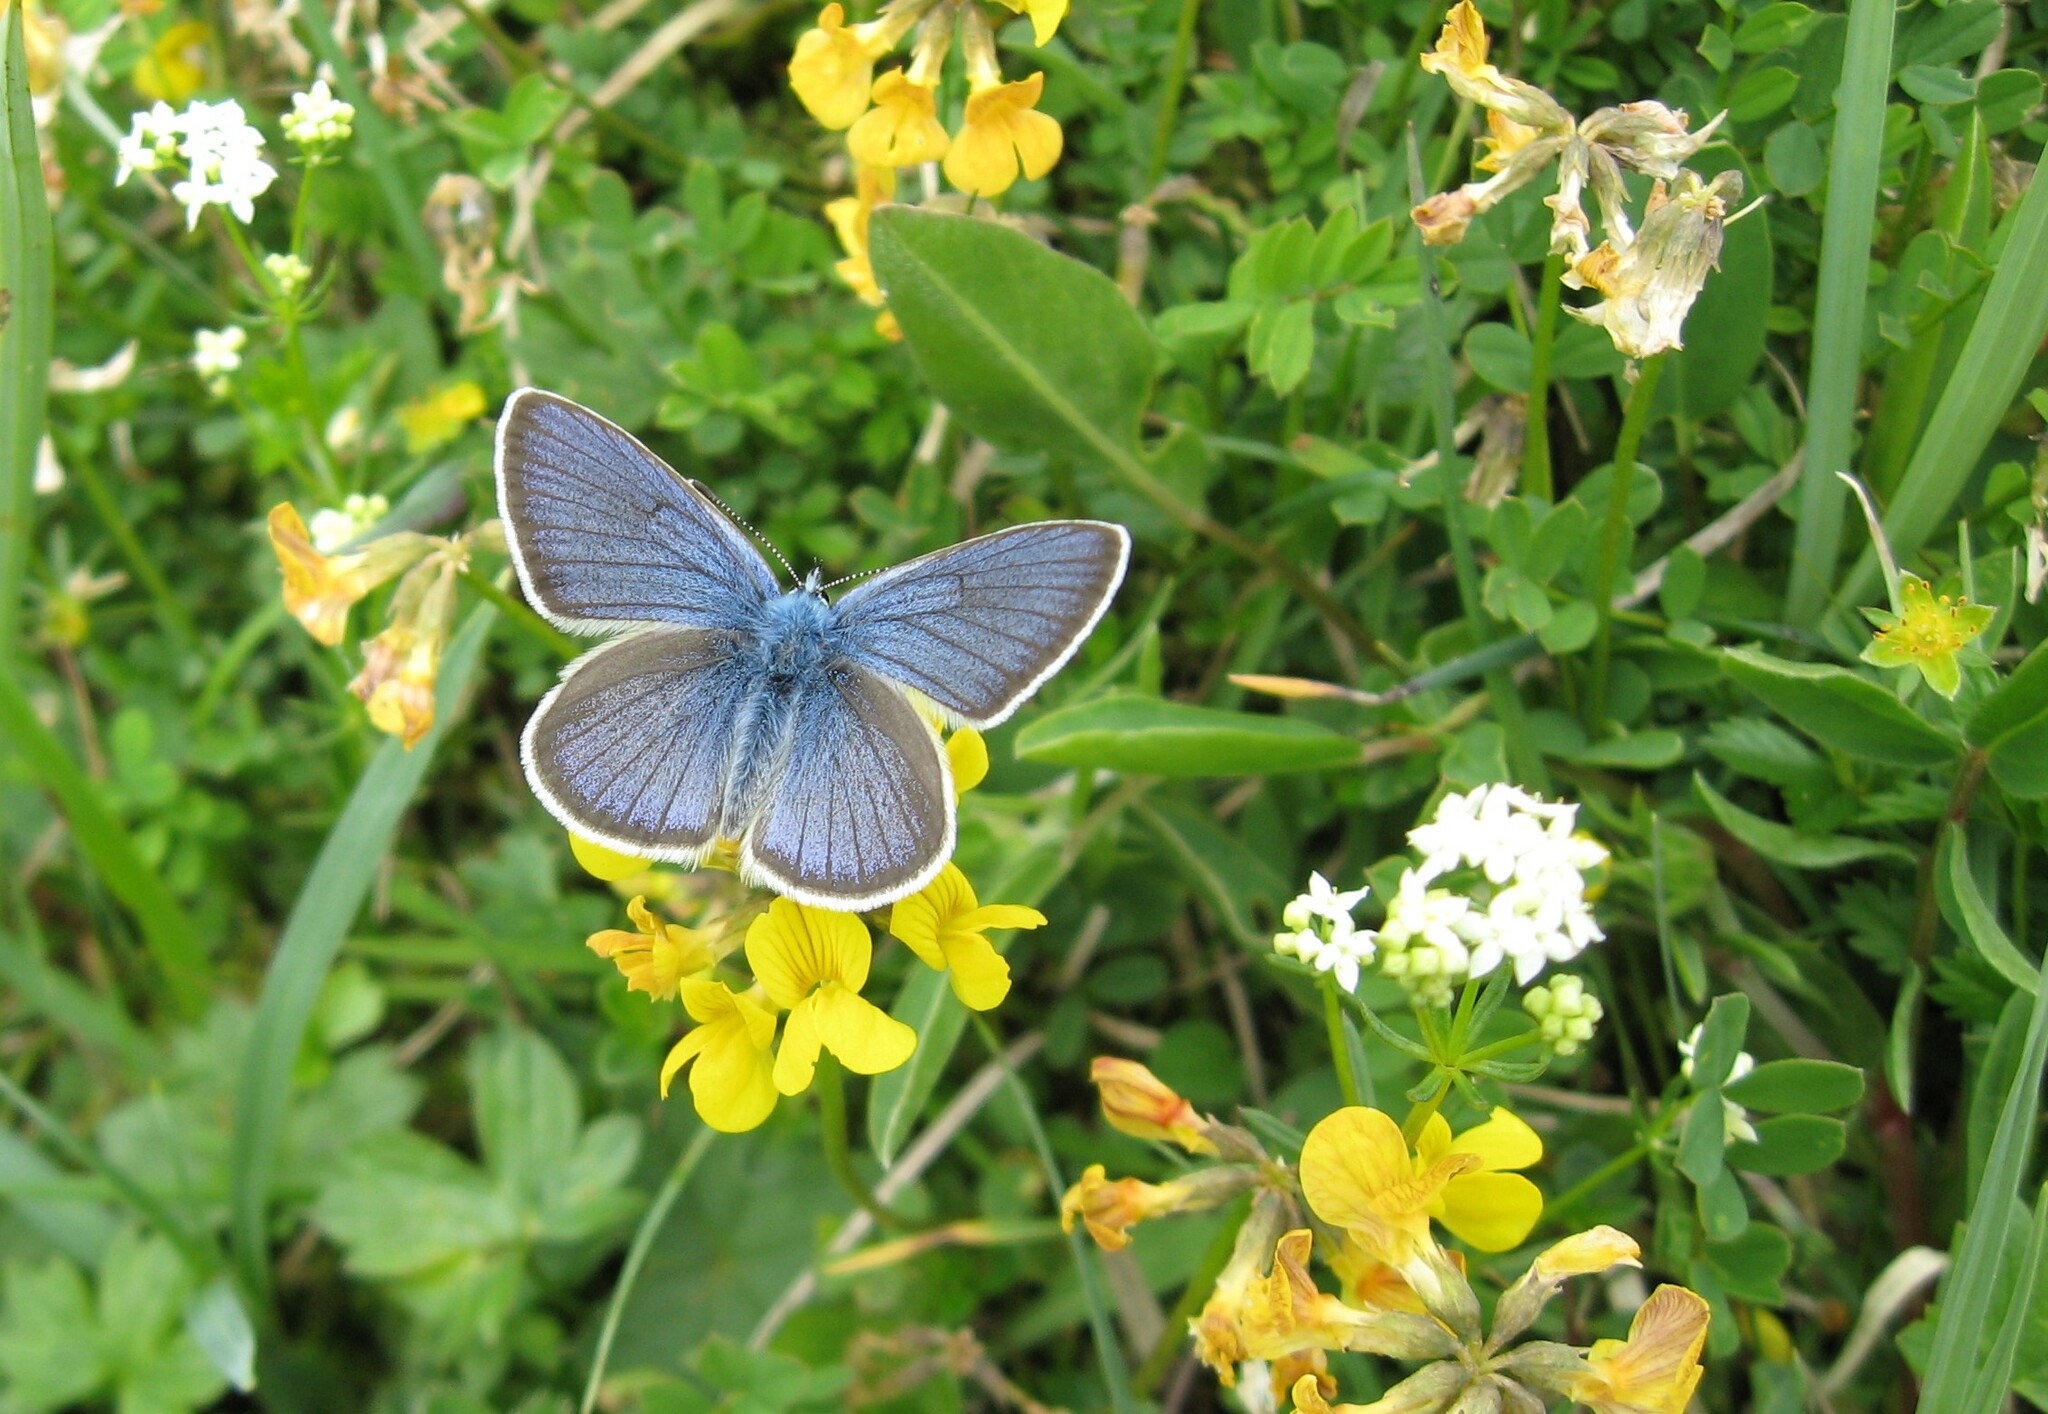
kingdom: Animalia
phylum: Arthropoda
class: Insecta
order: Lepidoptera
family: Lycaenidae
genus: Cyaniris
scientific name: Cyaniris semiargus
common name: Mazarine blue
